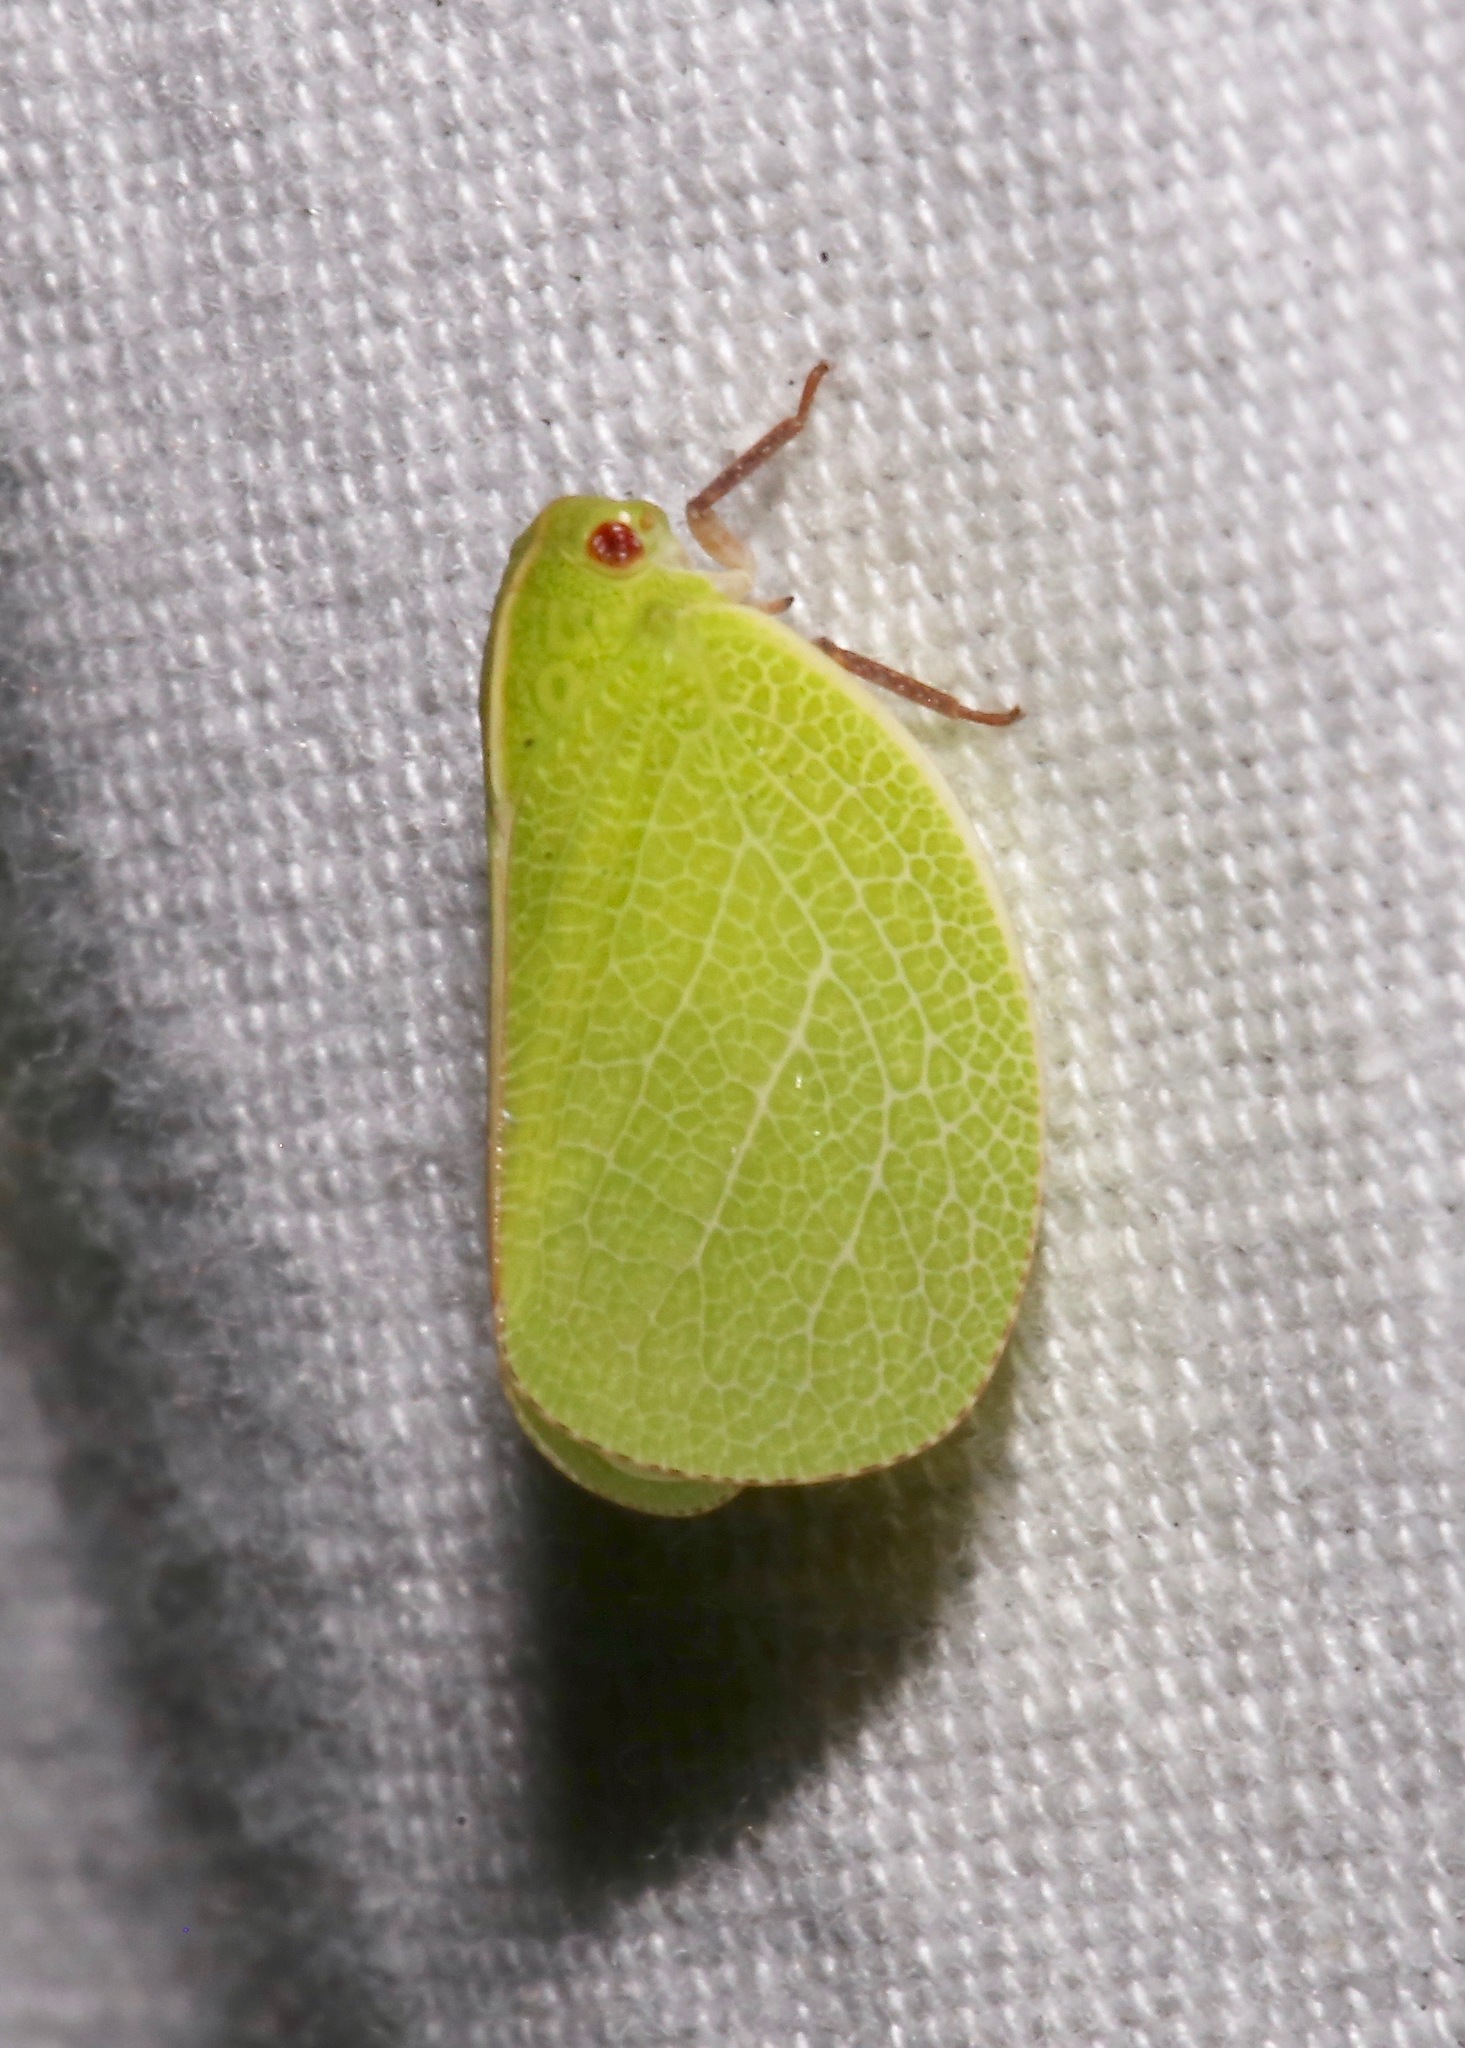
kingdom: Animalia
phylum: Arthropoda
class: Insecta
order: Hemiptera
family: Acanaloniidae
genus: Acanalonia
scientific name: Acanalonia servillei
